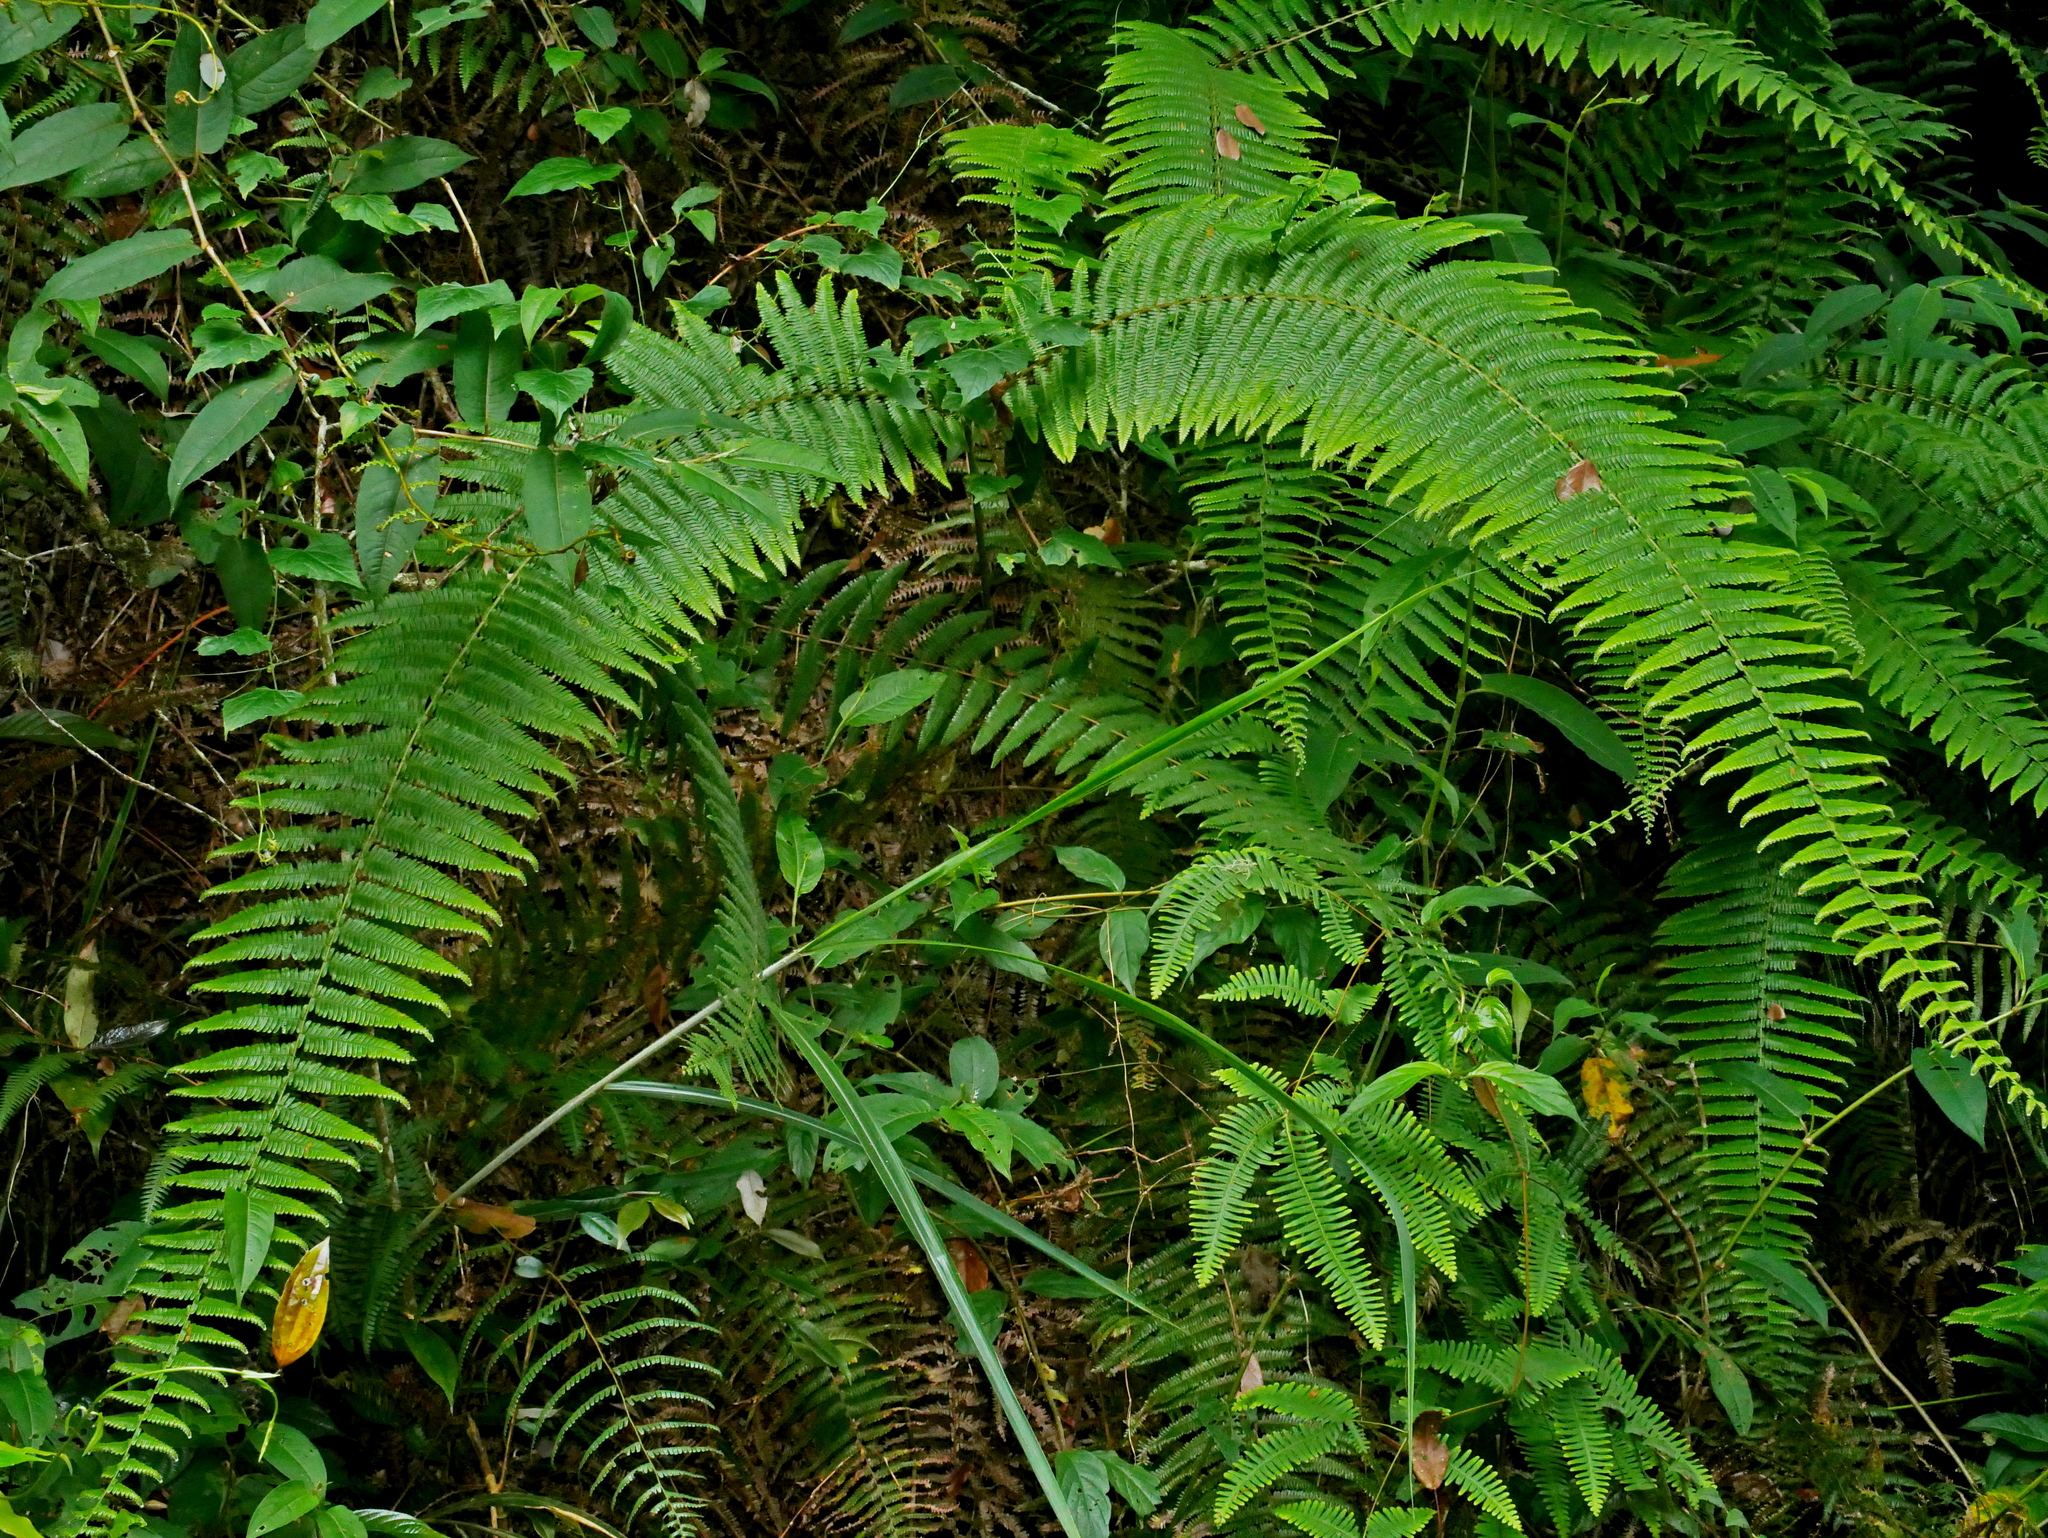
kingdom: Plantae
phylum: Tracheophyta
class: Polypodiopsida
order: Gleicheniales
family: Gleicheniaceae
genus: Diplopterygium
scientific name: Diplopterygium glaucum
